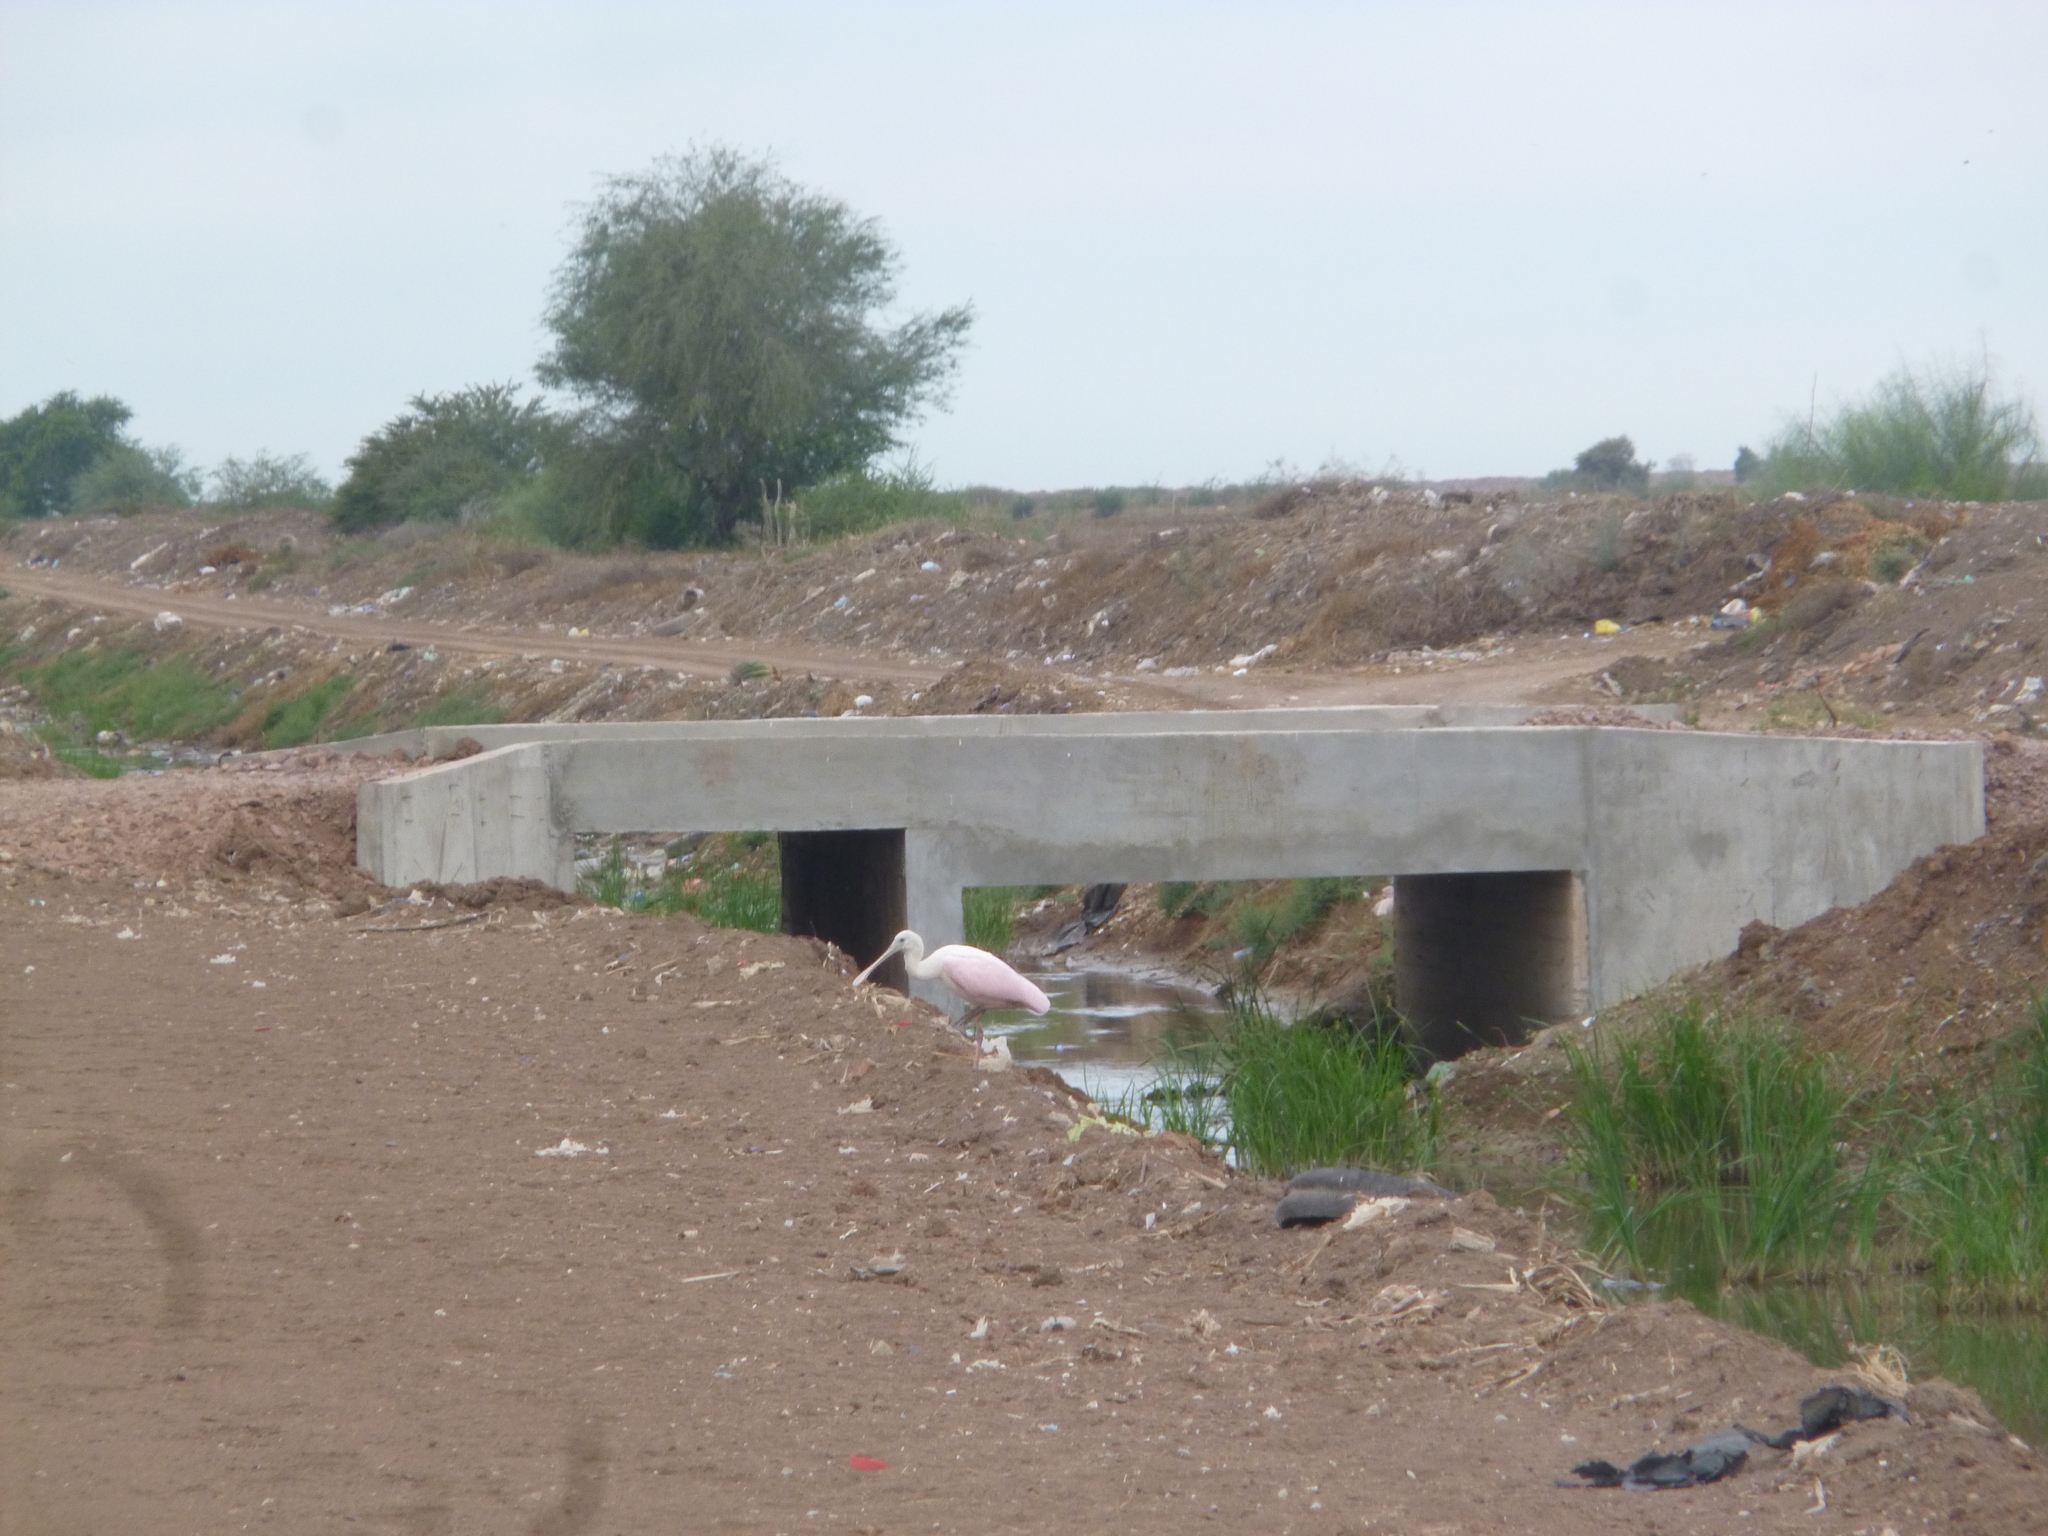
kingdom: Animalia
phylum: Chordata
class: Aves
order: Pelecaniformes
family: Threskiornithidae
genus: Platalea
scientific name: Platalea ajaja
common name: Roseate spoonbill
